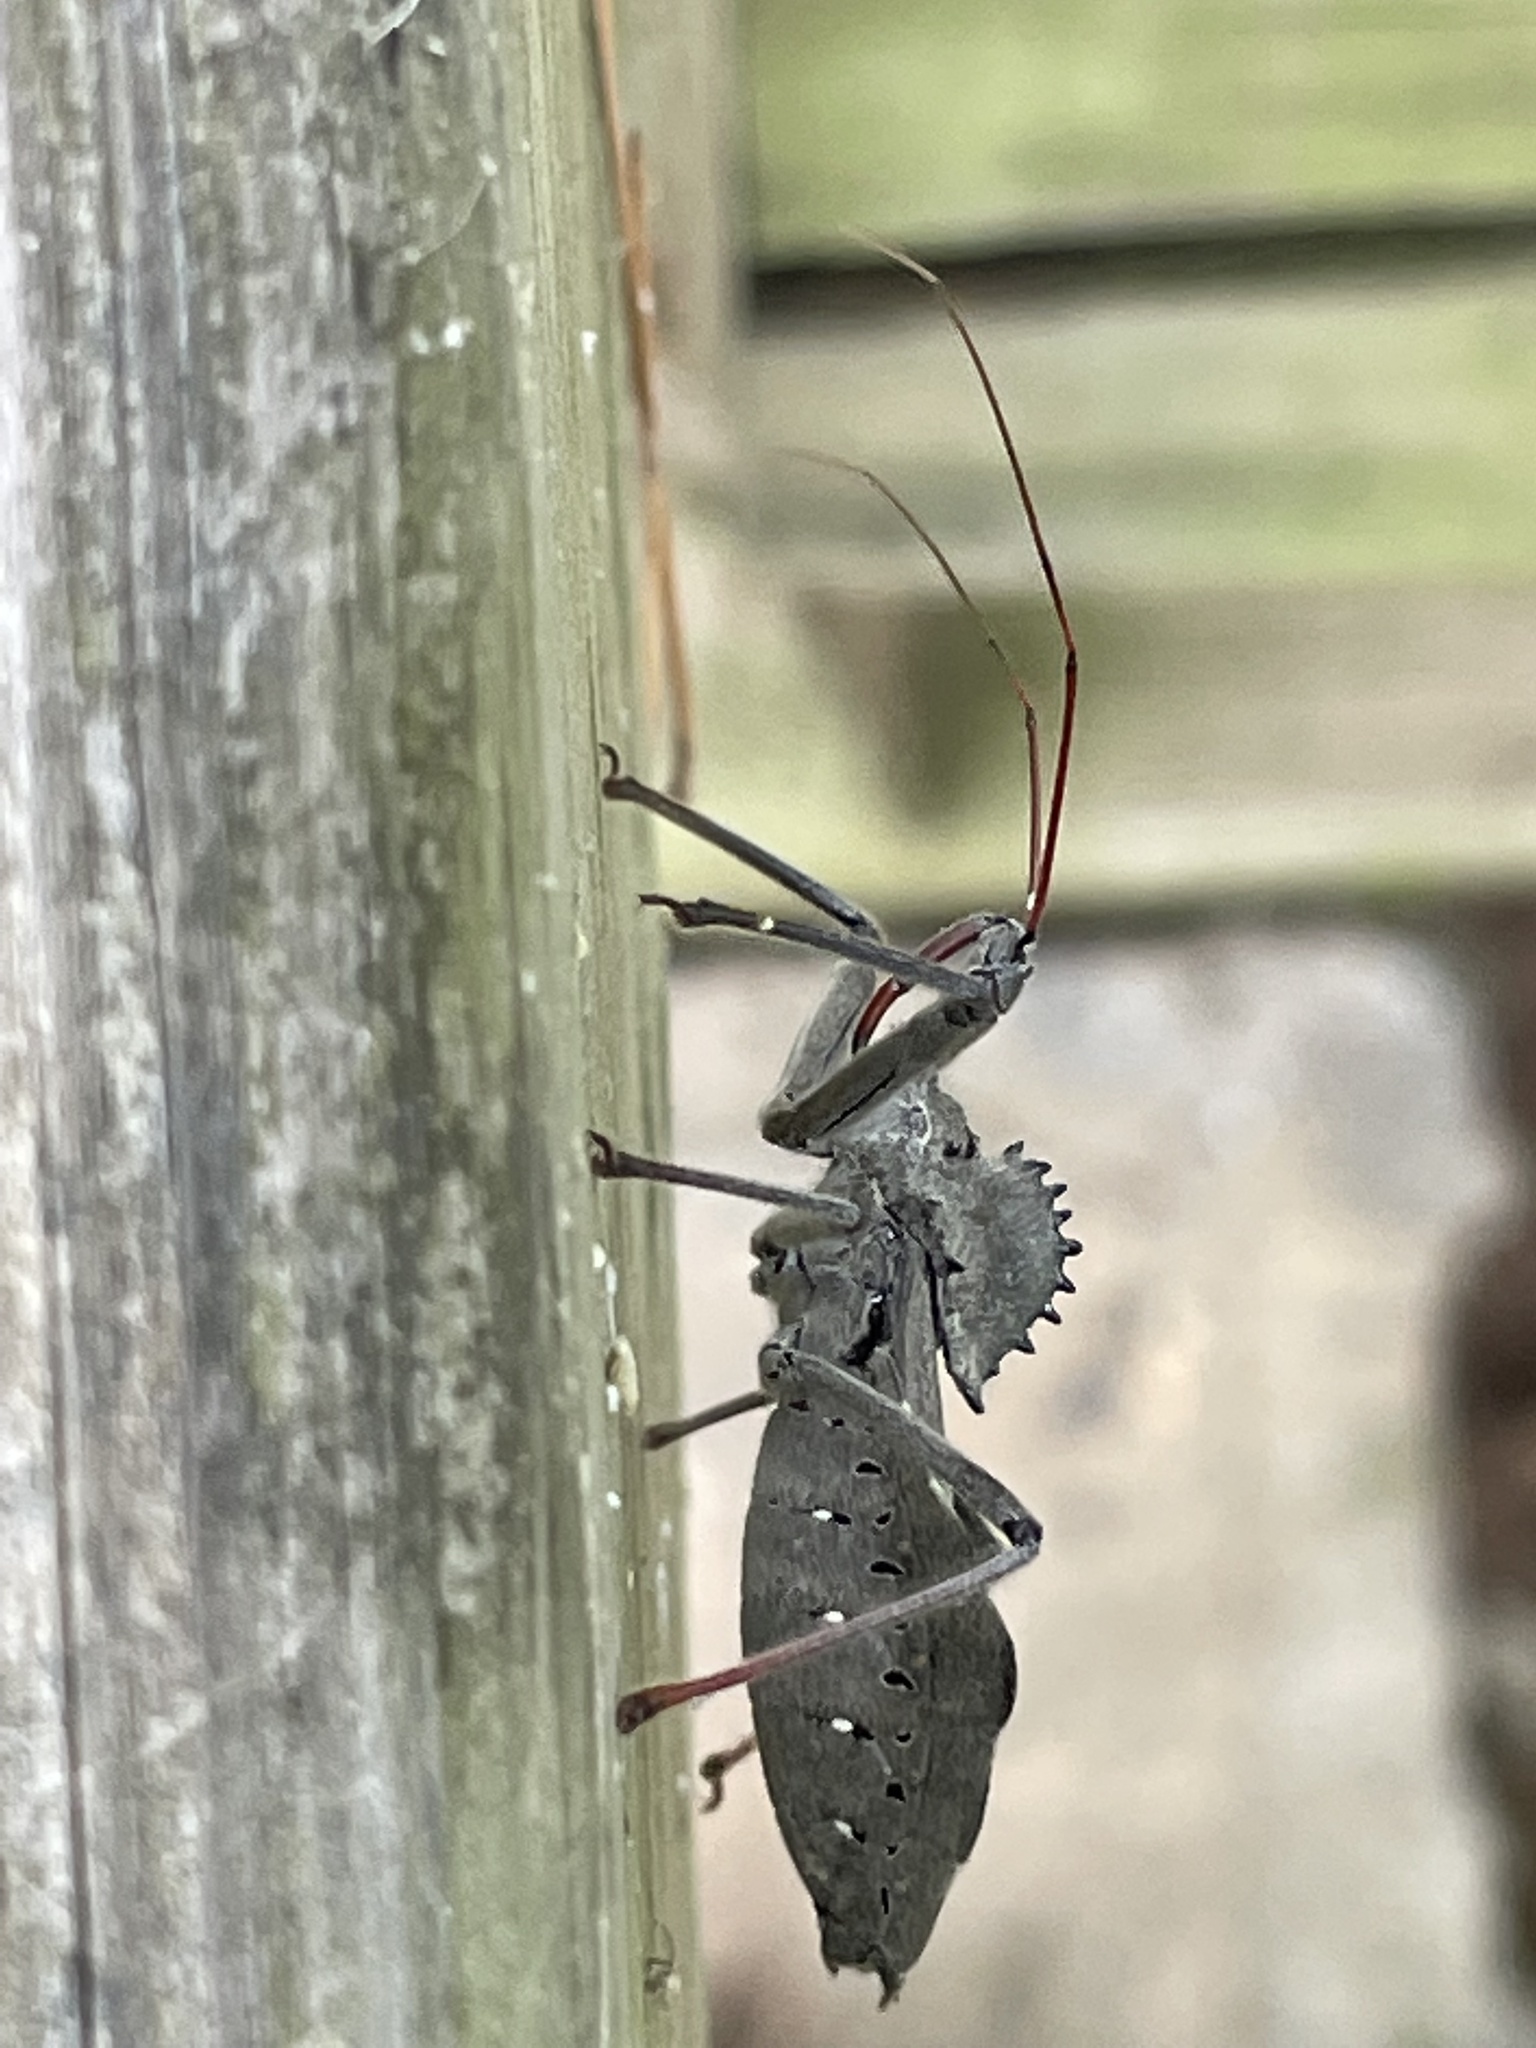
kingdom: Animalia
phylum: Arthropoda
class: Insecta
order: Hemiptera
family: Reduviidae
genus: Arilus
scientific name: Arilus cristatus
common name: North american wheel bug
